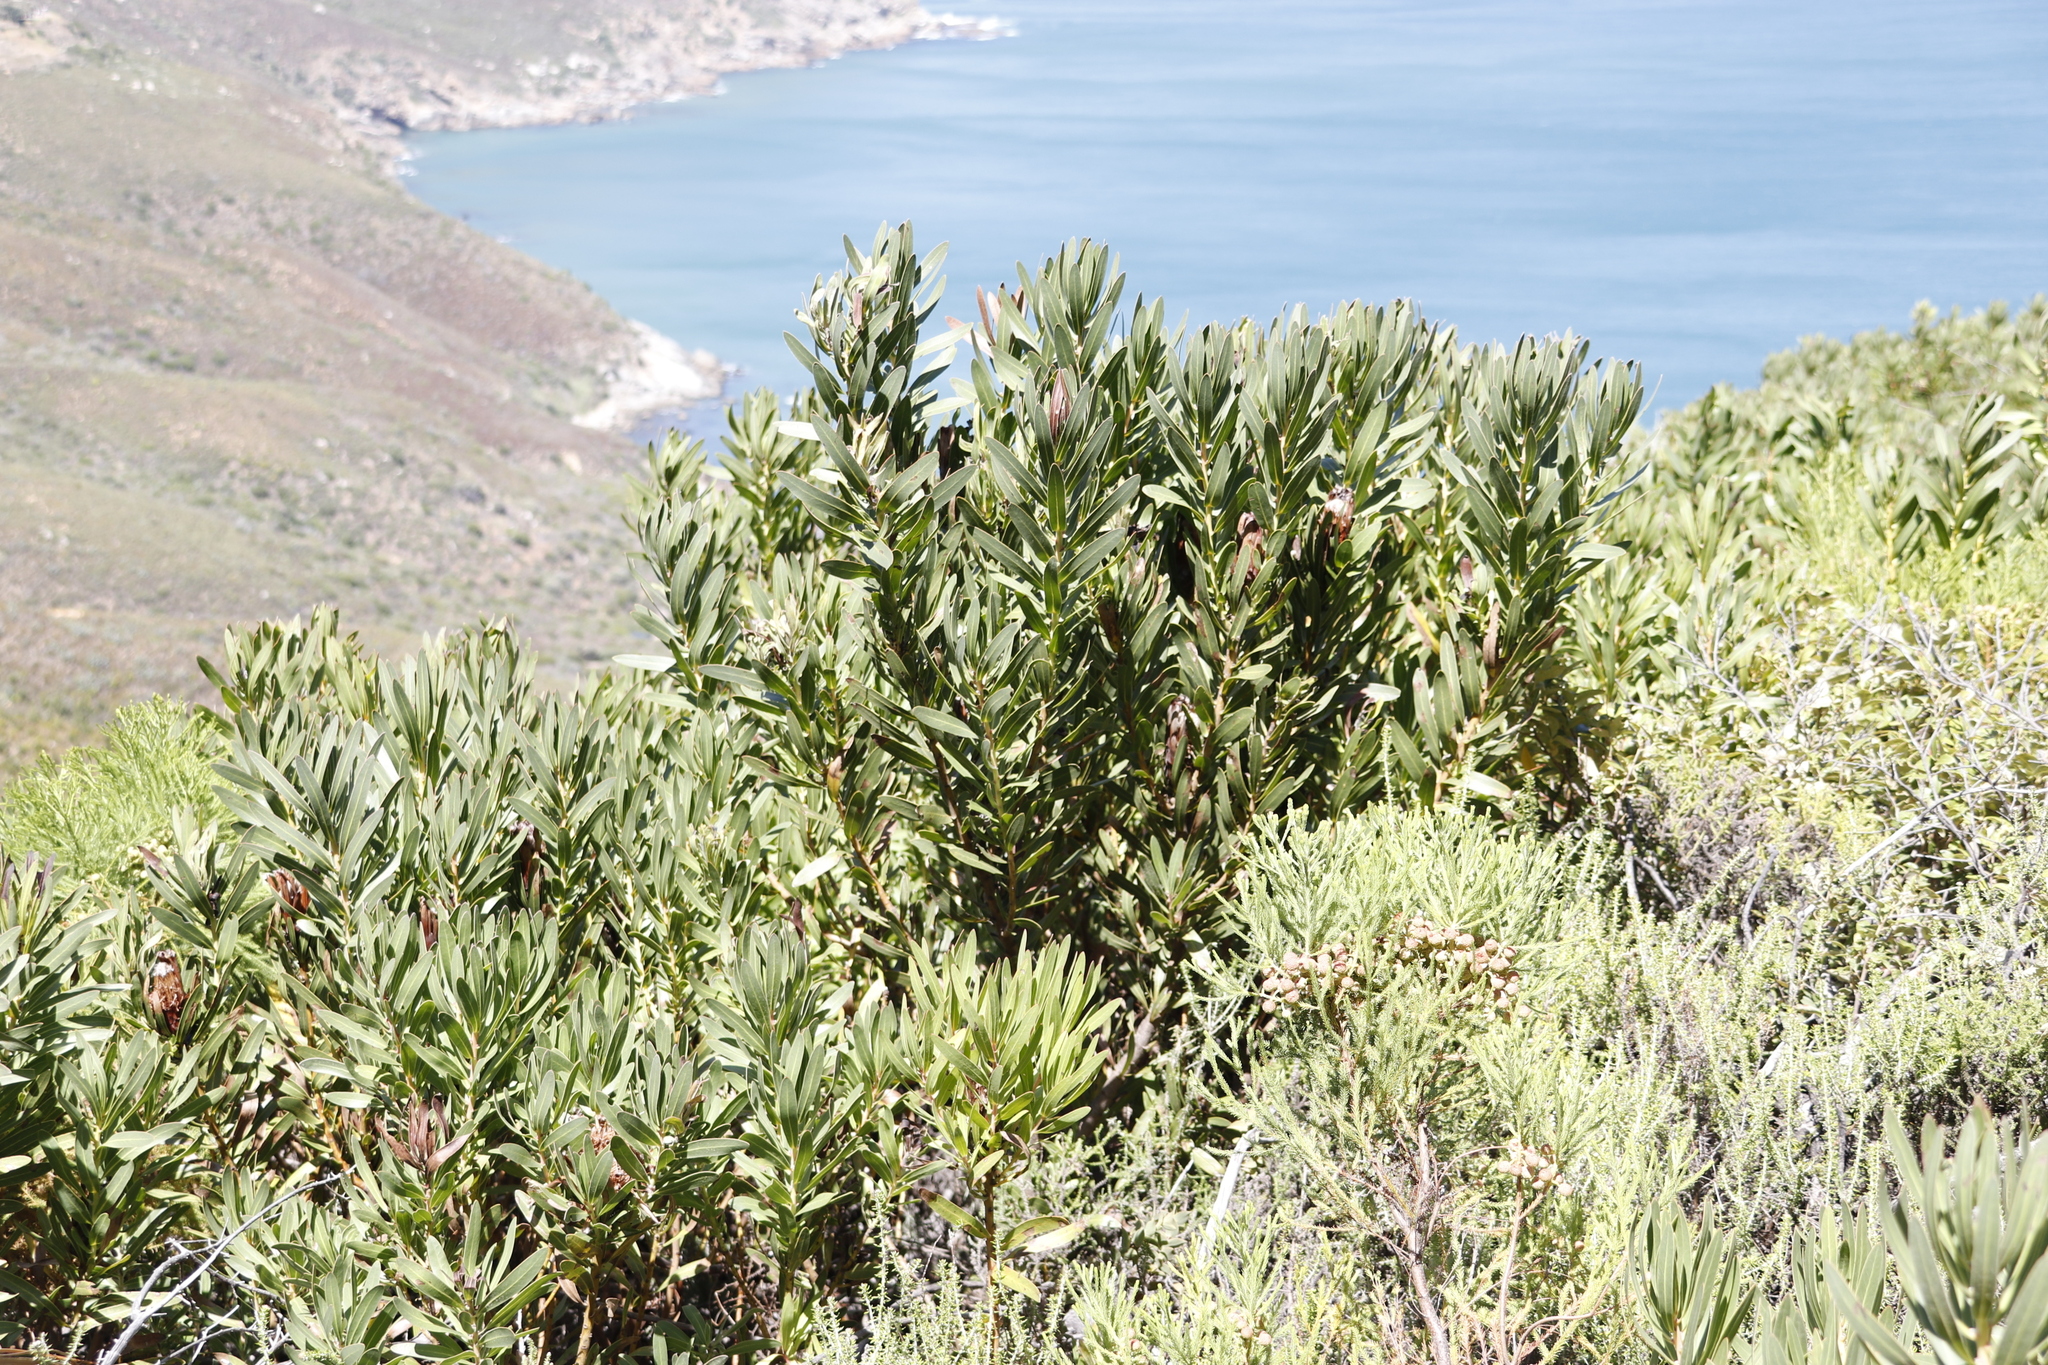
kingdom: Plantae
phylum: Tracheophyta
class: Magnoliopsida
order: Proteales
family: Proteaceae
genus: Protea
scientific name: Protea lepidocarpodendron
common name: Black-bearded protea
